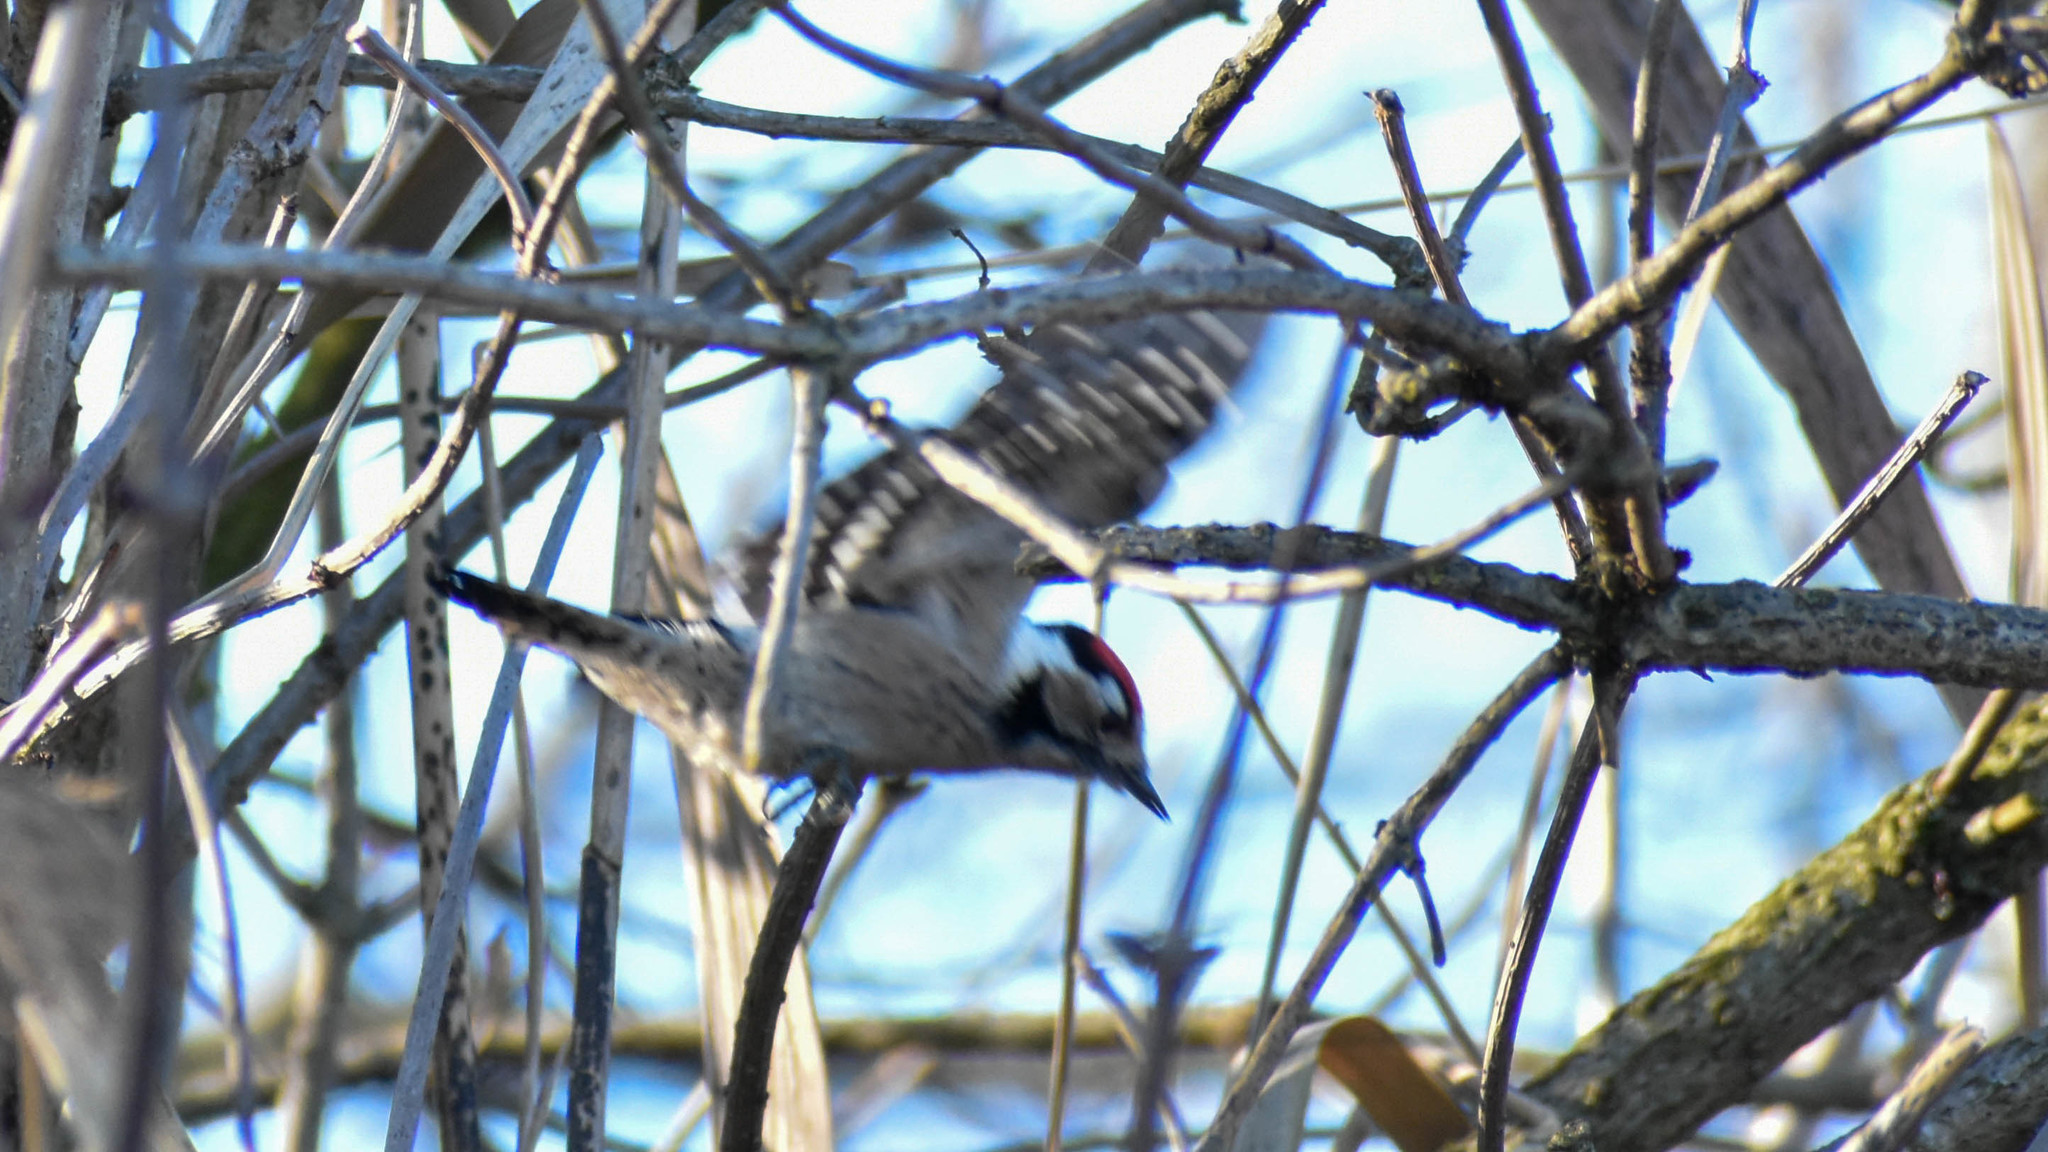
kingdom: Animalia
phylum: Chordata
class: Aves
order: Piciformes
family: Picidae
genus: Dryobates
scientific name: Dryobates minor
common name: Lesser spotted woodpecker
